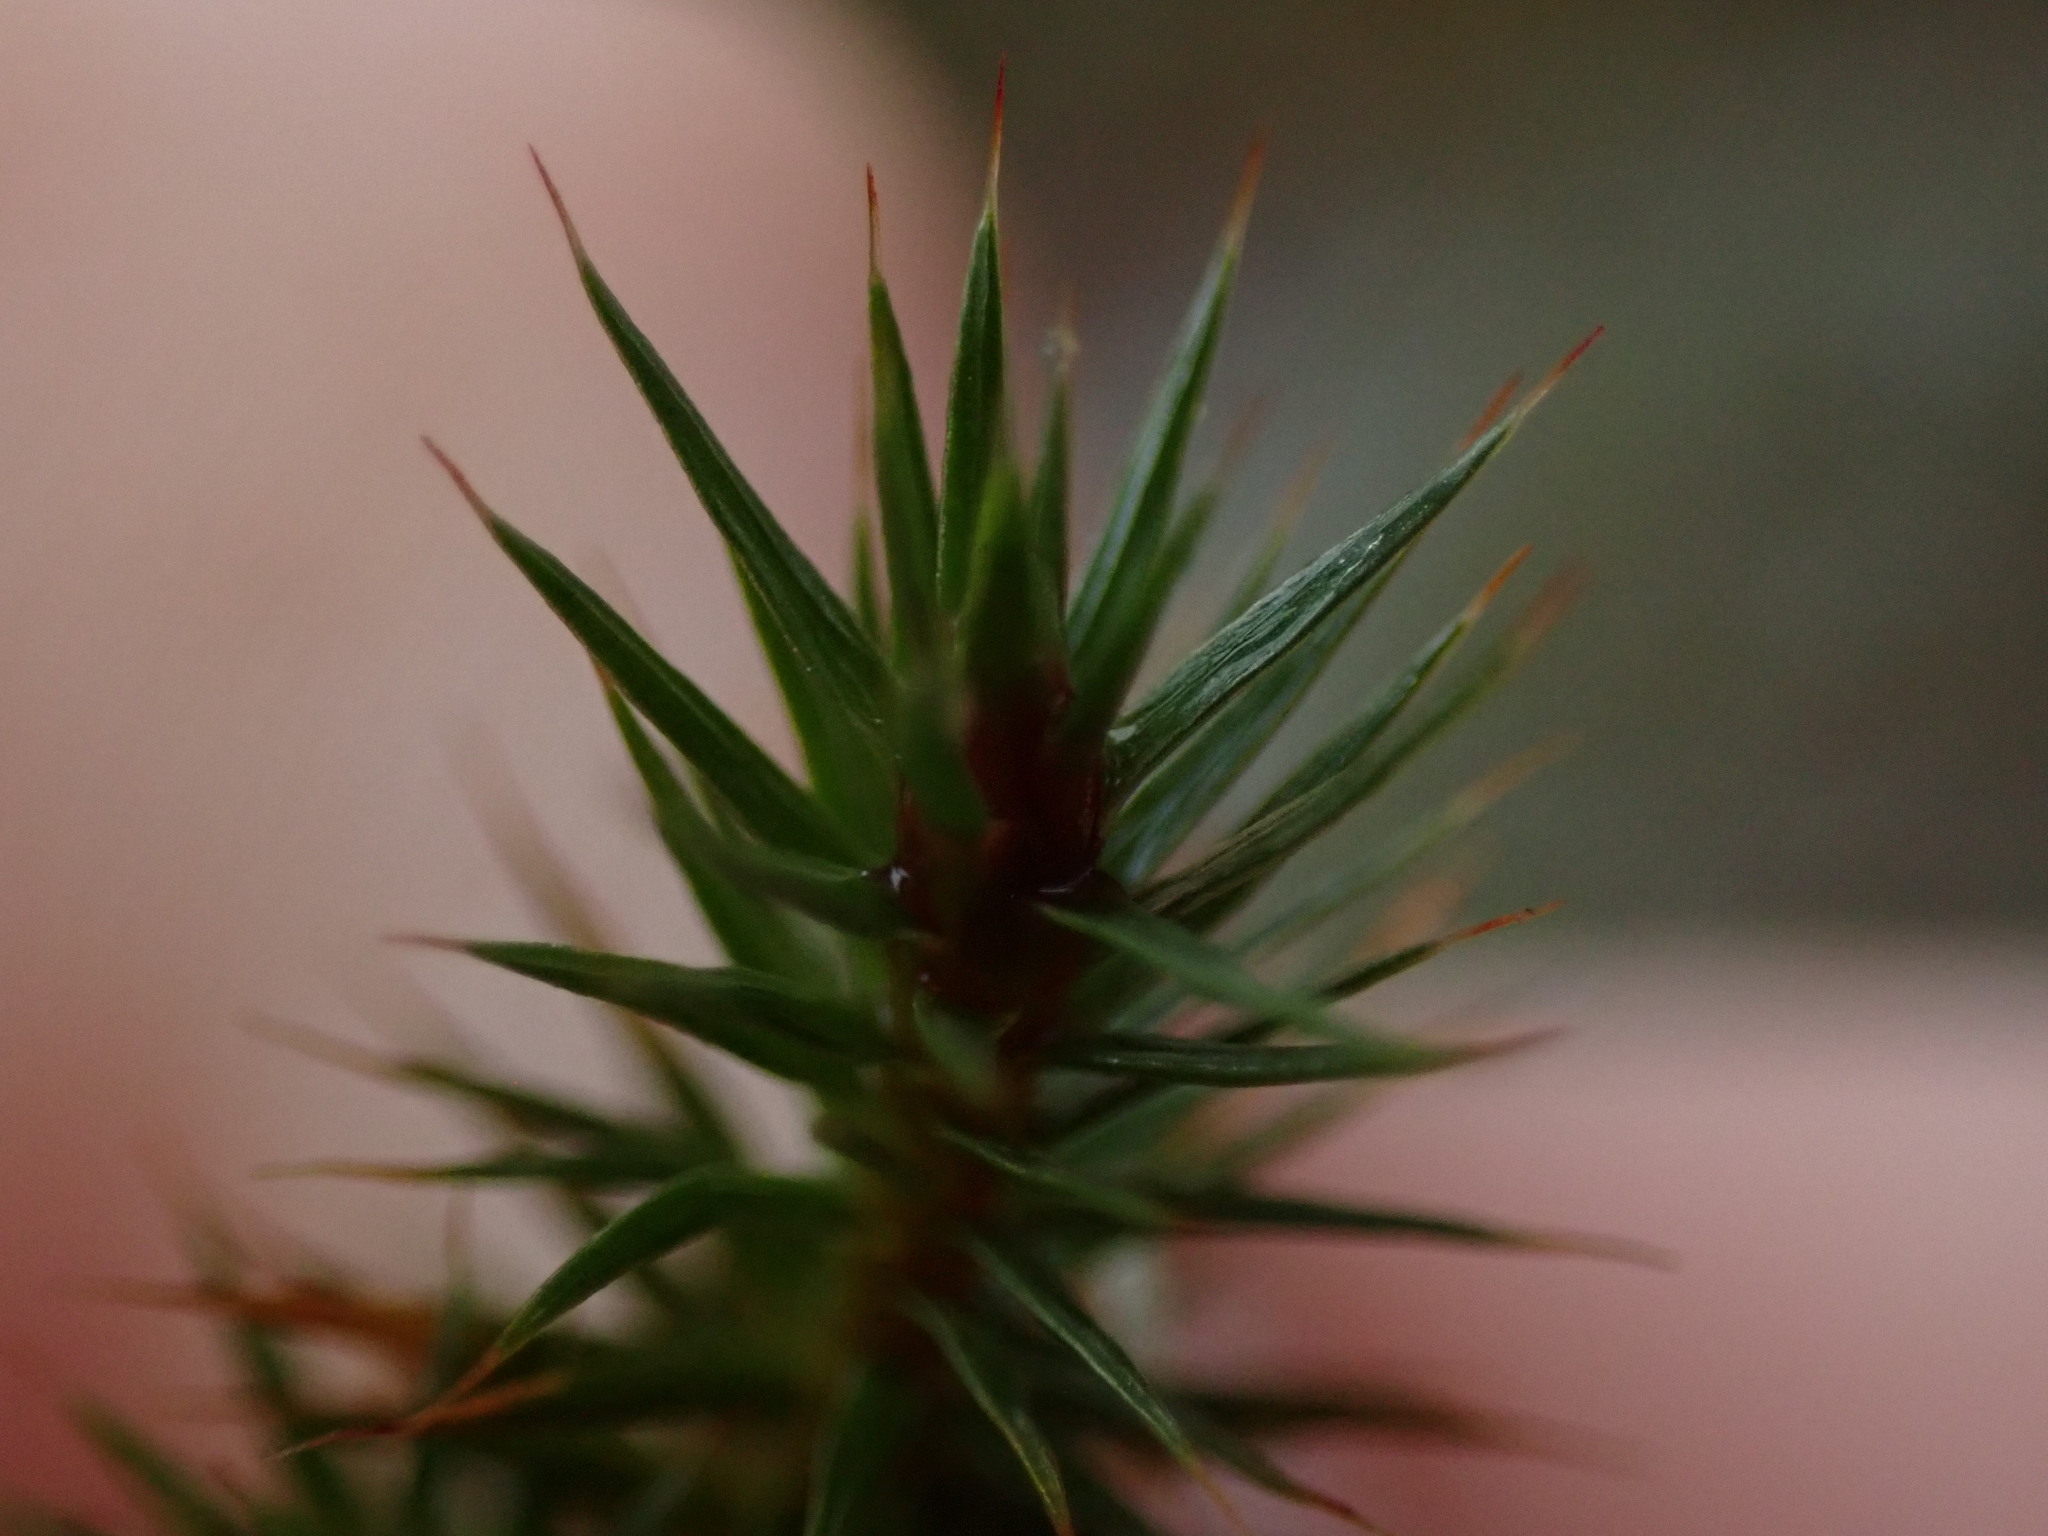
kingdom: Plantae
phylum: Bryophyta
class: Polytrichopsida
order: Polytrichales
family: Polytrichaceae
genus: Polytrichum
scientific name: Polytrichum juniperinum
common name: Juniper haircap moss
